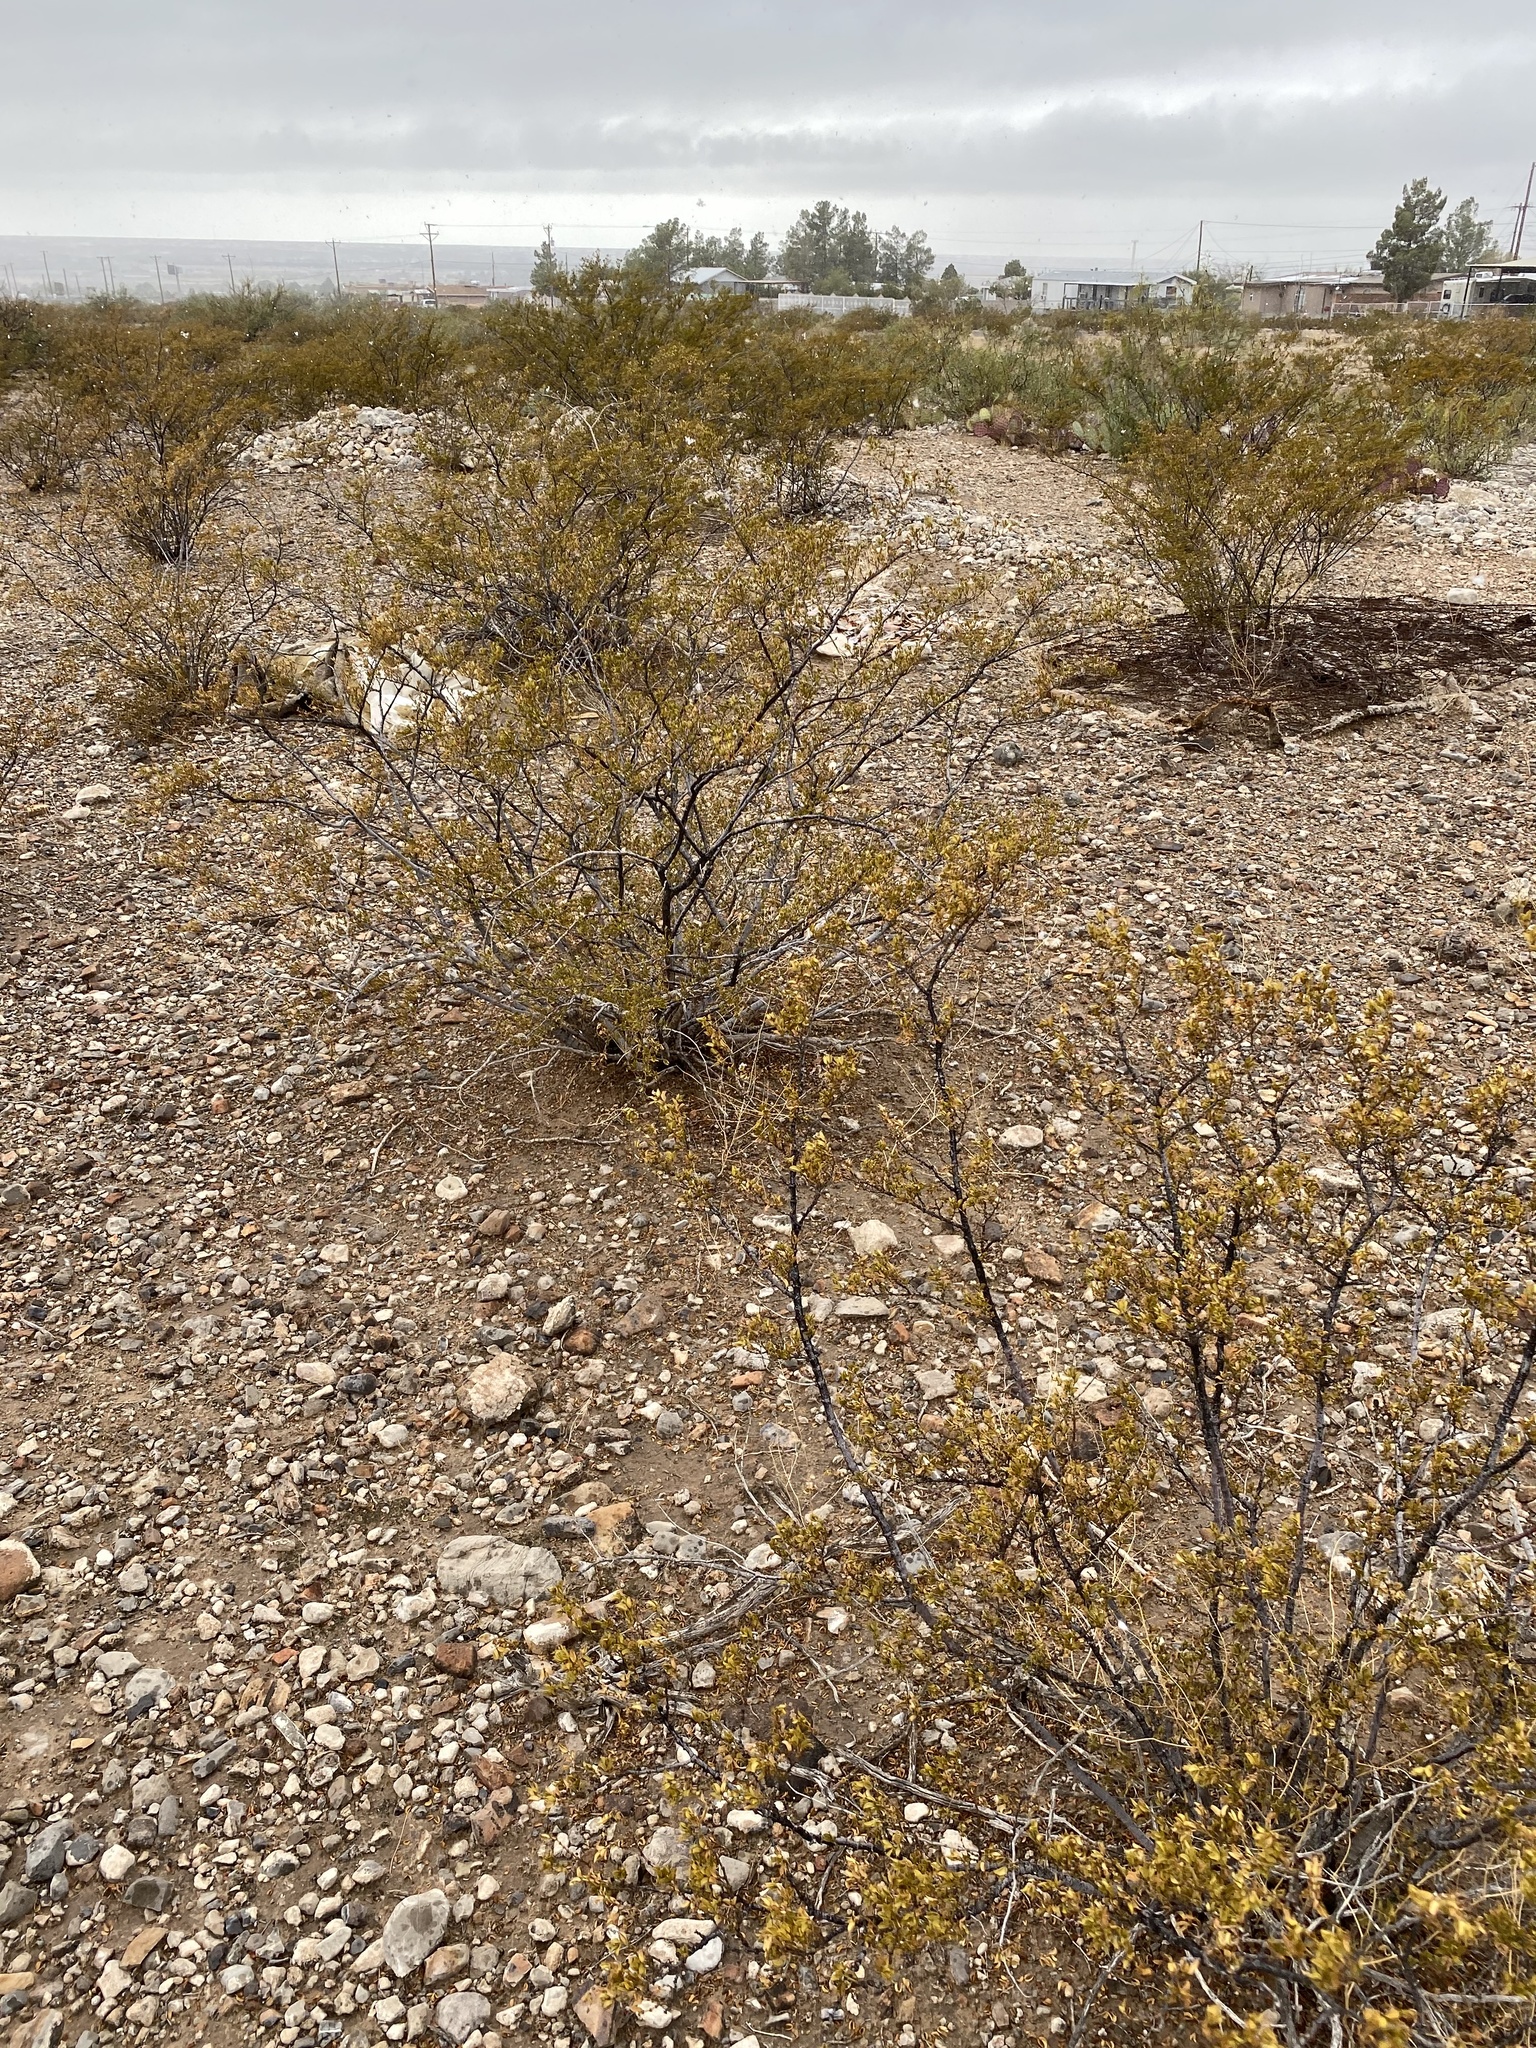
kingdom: Plantae
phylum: Tracheophyta
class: Magnoliopsida
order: Zygophyllales
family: Zygophyllaceae
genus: Larrea
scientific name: Larrea tridentata
